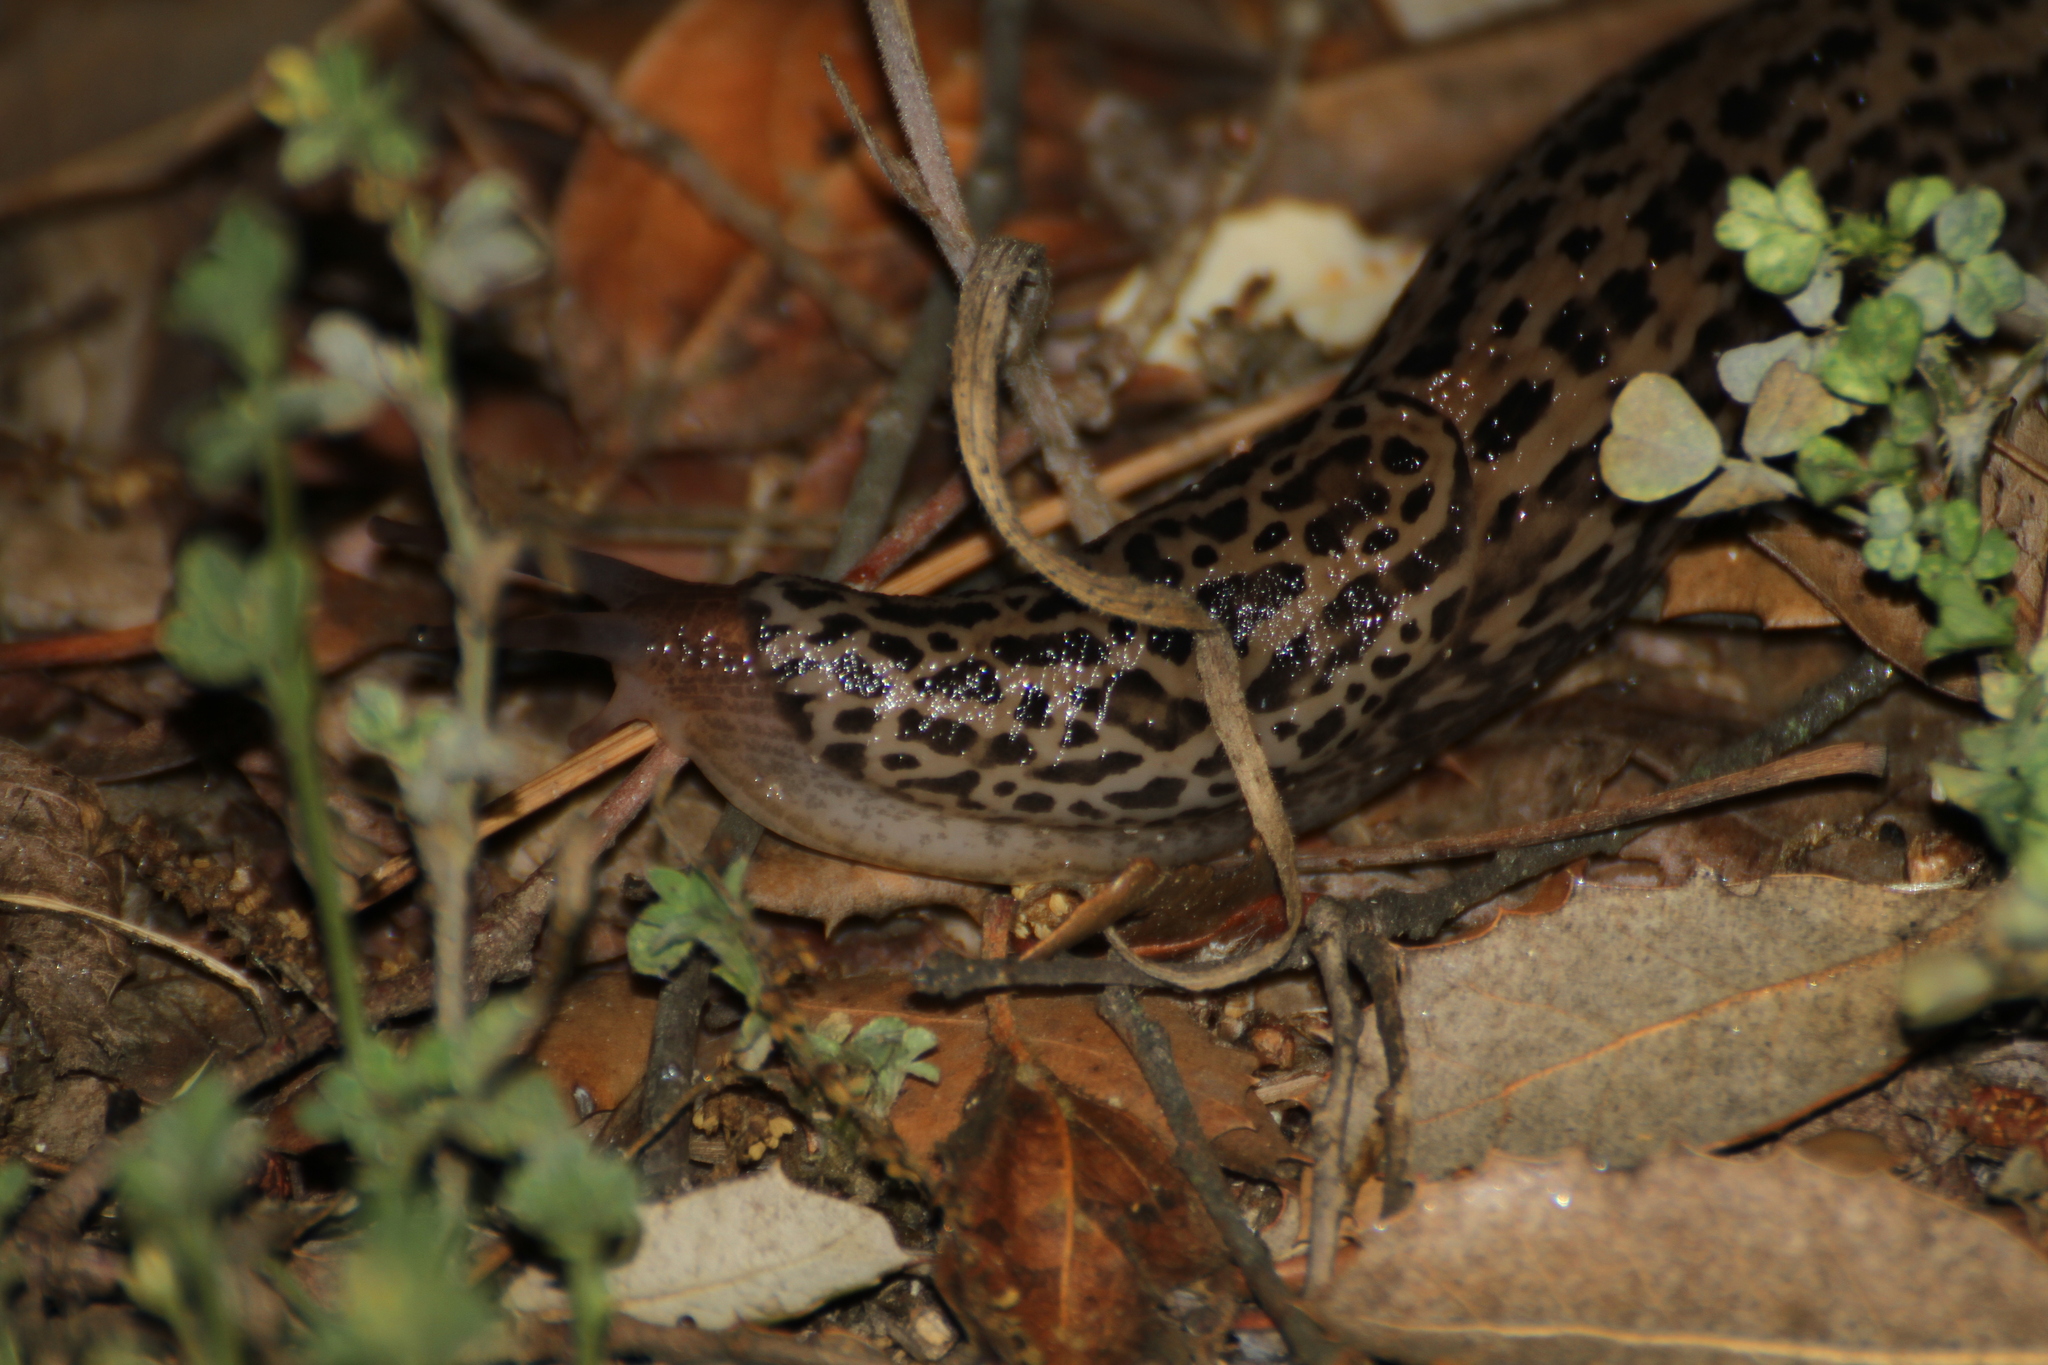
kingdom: Animalia
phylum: Mollusca
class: Gastropoda
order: Stylommatophora
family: Limacidae
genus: Limax
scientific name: Limax maximus
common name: Great grey slug
